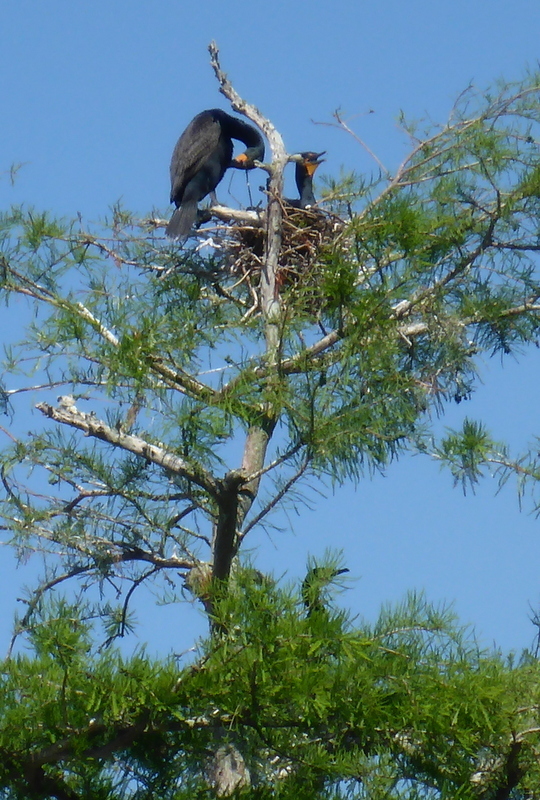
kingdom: Animalia
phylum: Chordata
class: Aves
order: Suliformes
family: Phalacrocoracidae
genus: Phalacrocorax
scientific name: Phalacrocorax auritus
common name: Double-crested cormorant
